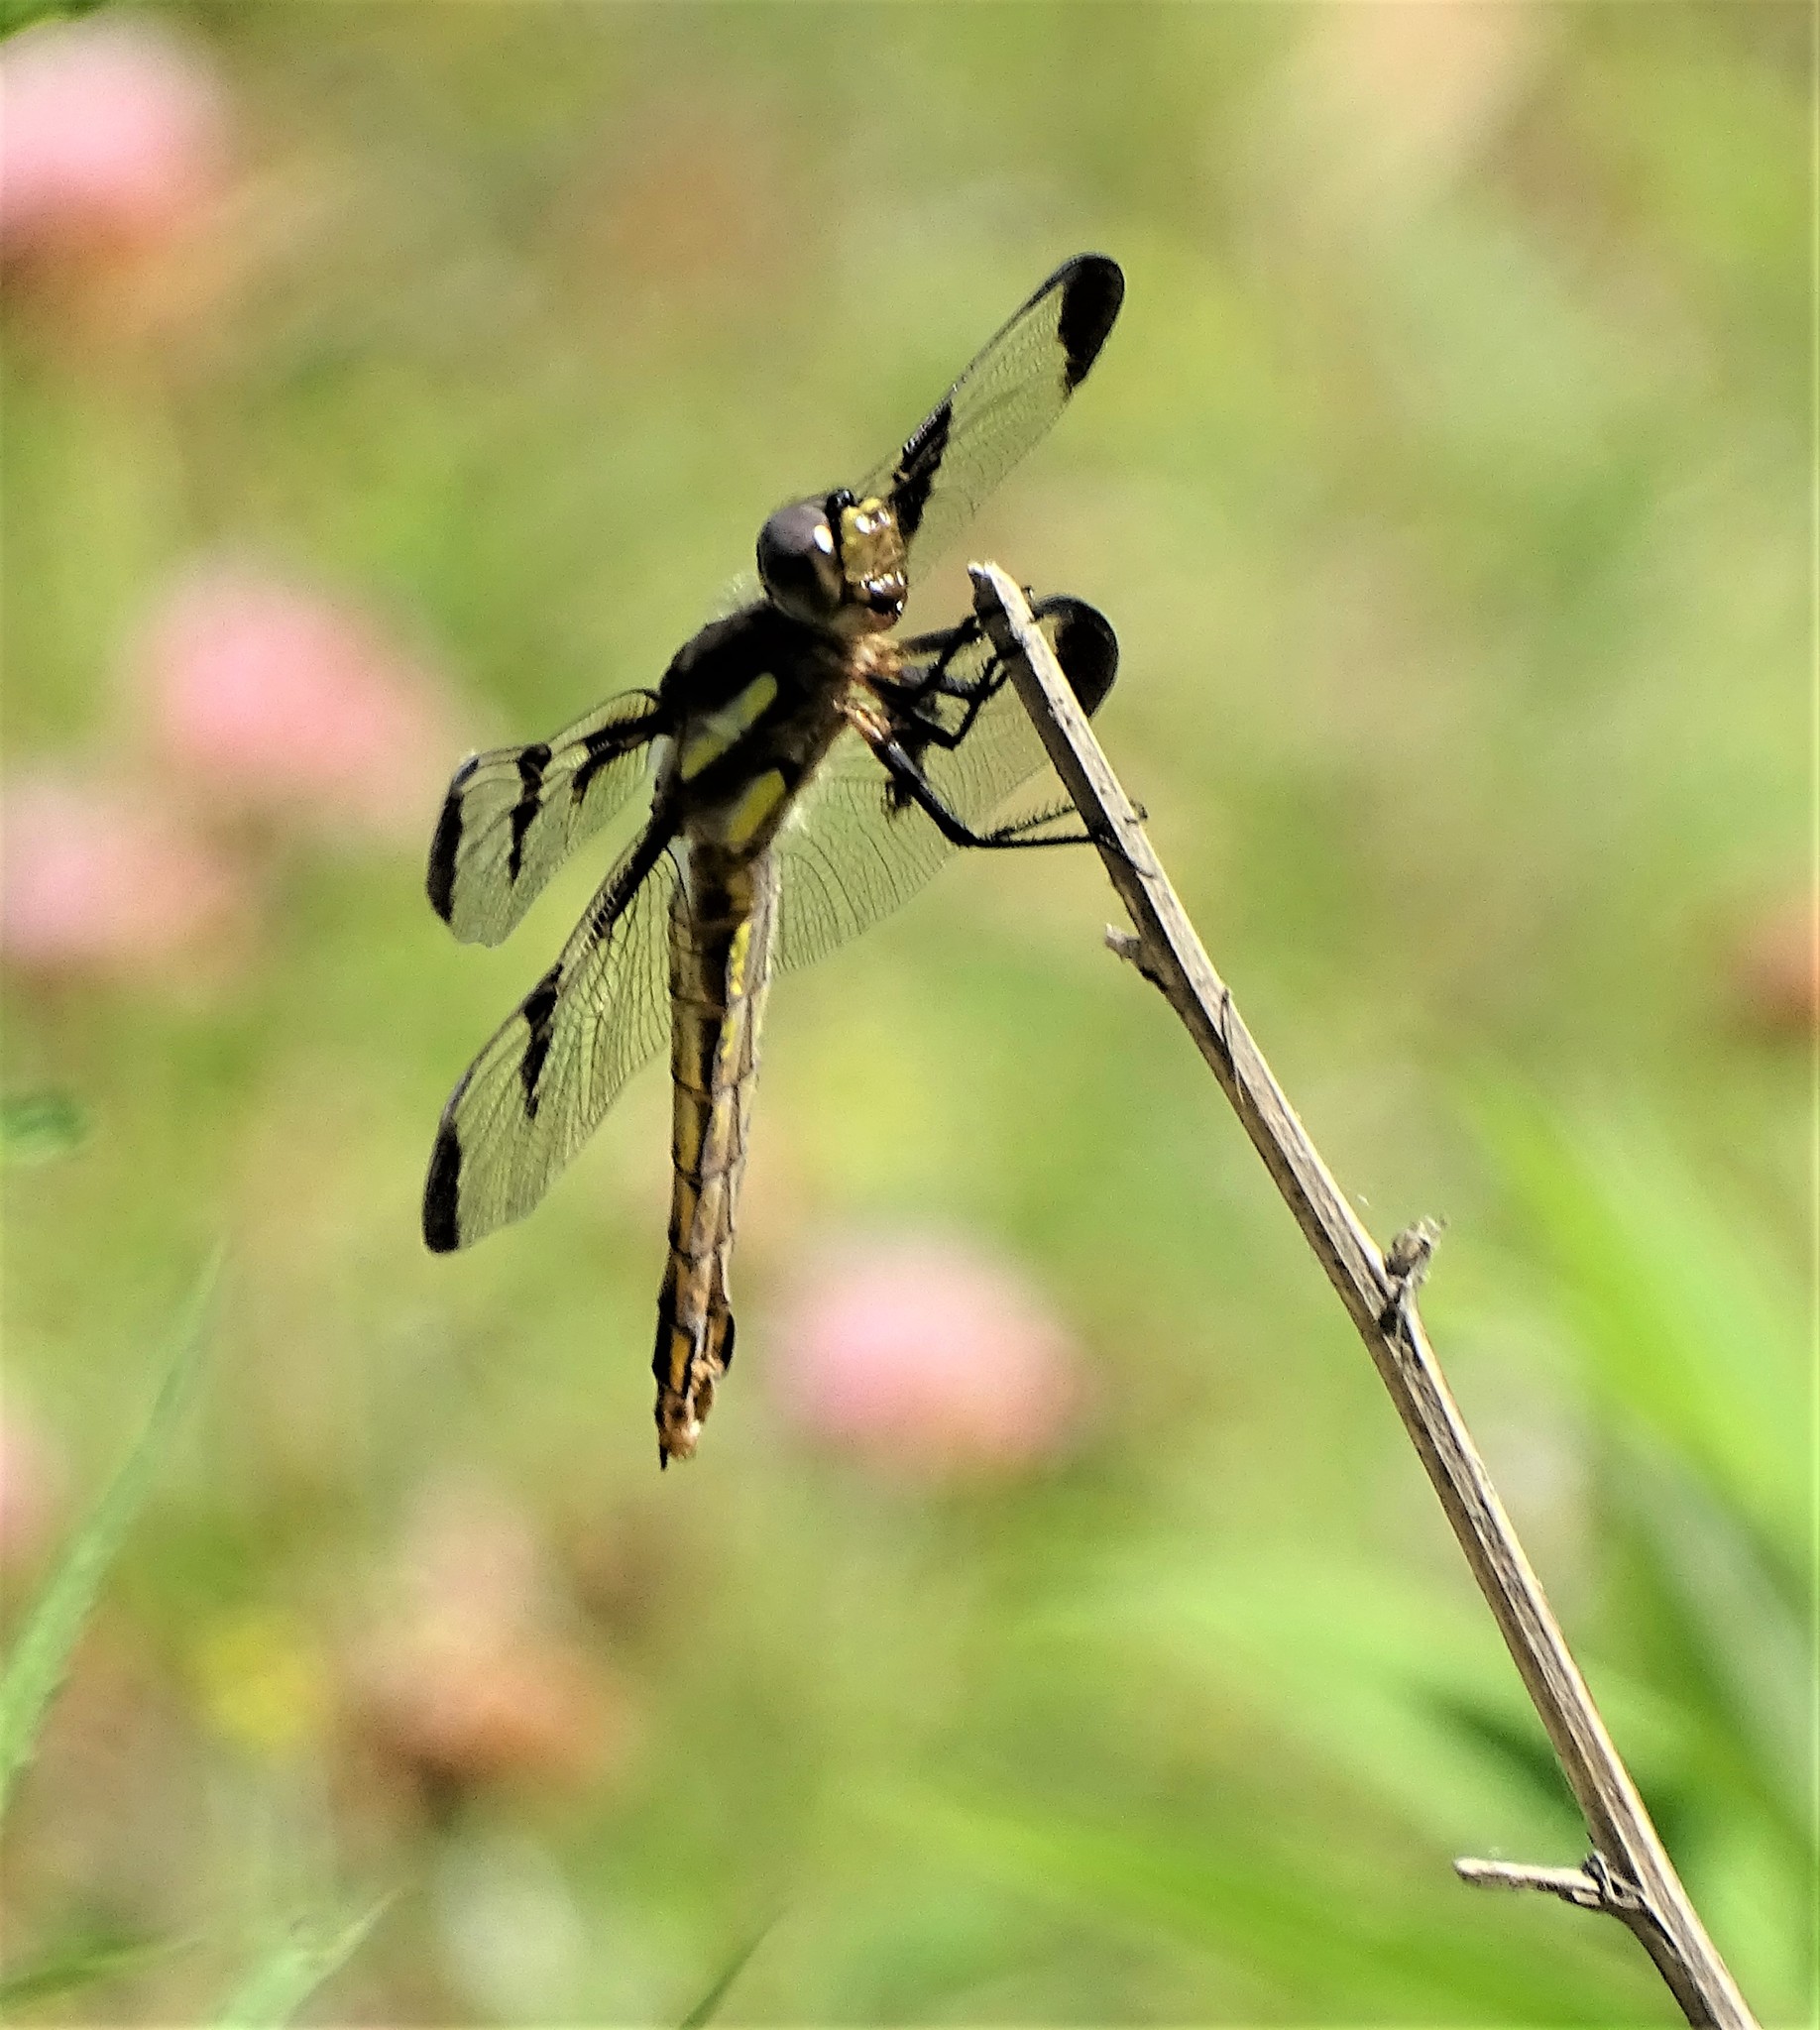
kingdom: Animalia
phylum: Arthropoda
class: Insecta
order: Odonata
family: Libellulidae
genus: Libellula
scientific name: Libellula pulchella
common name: Twelve-spotted skimmer
